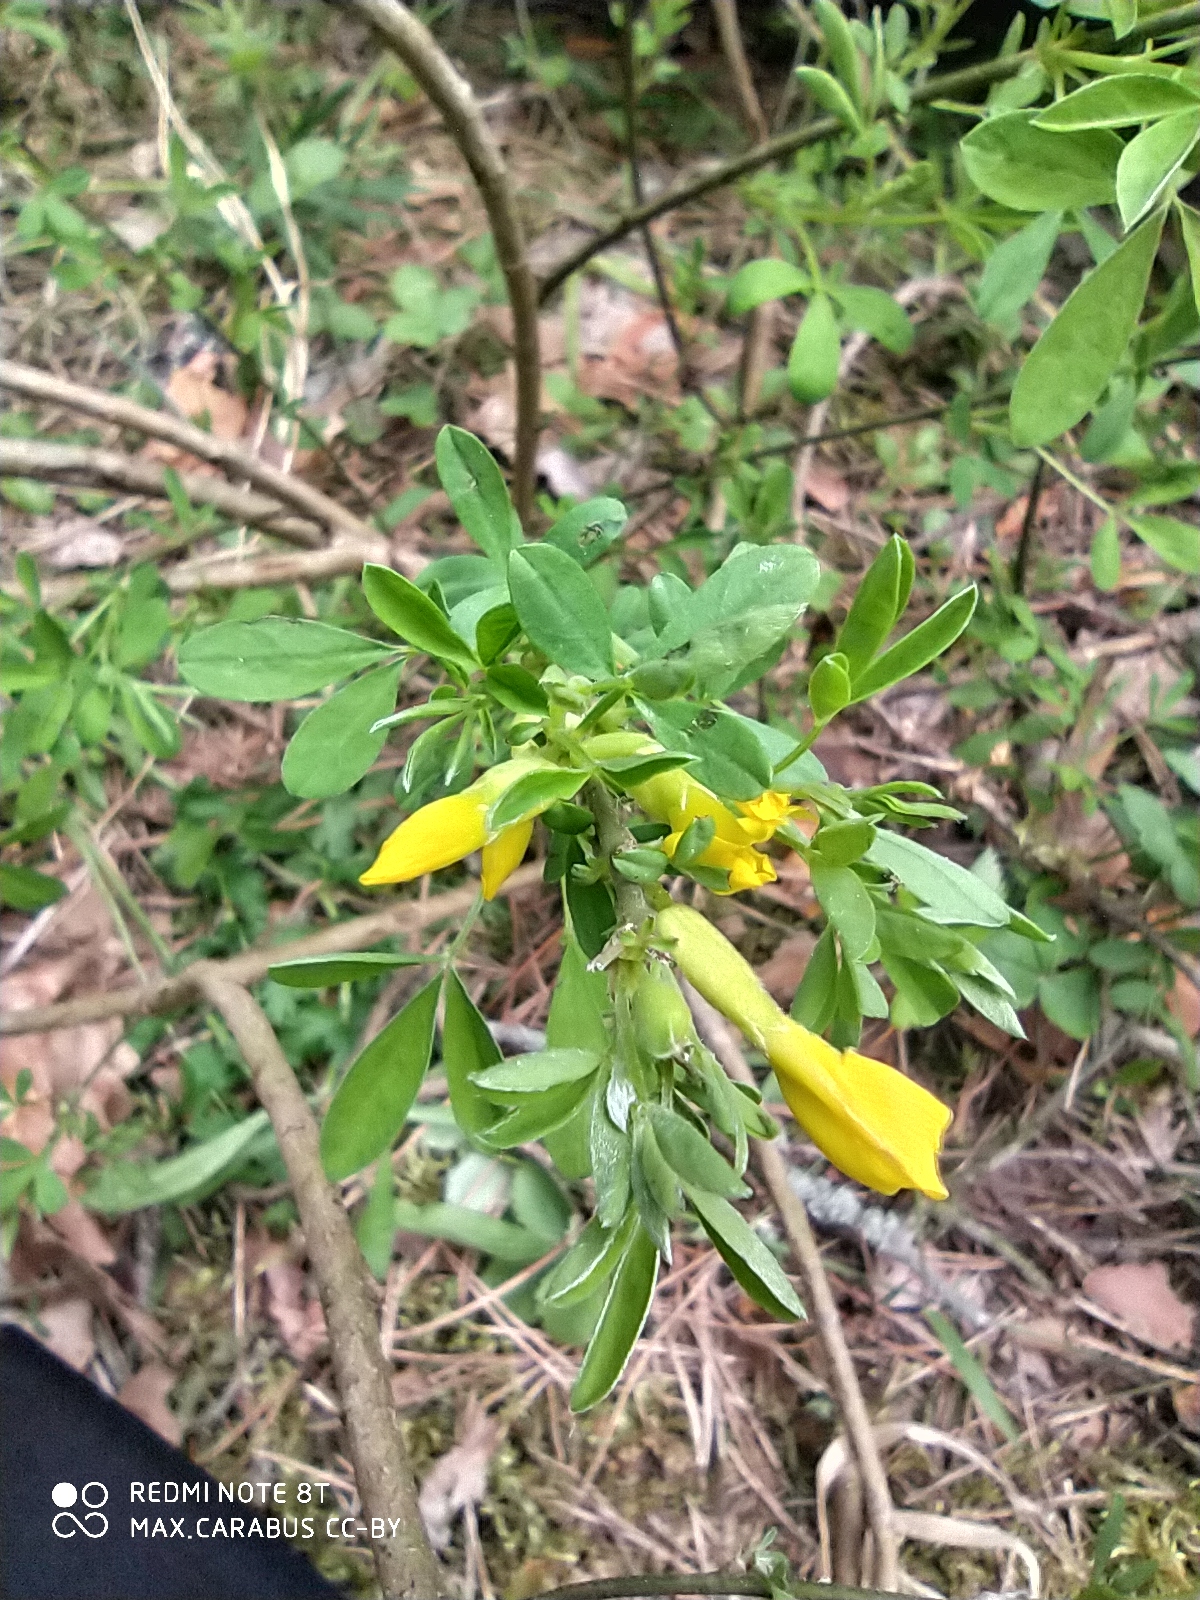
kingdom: Plantae
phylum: Tracheophyta
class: Magnoliopsida
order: Fabales
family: Fabaceae
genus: Chamaecytisus
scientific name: Chamaecytisus ruthenicus
